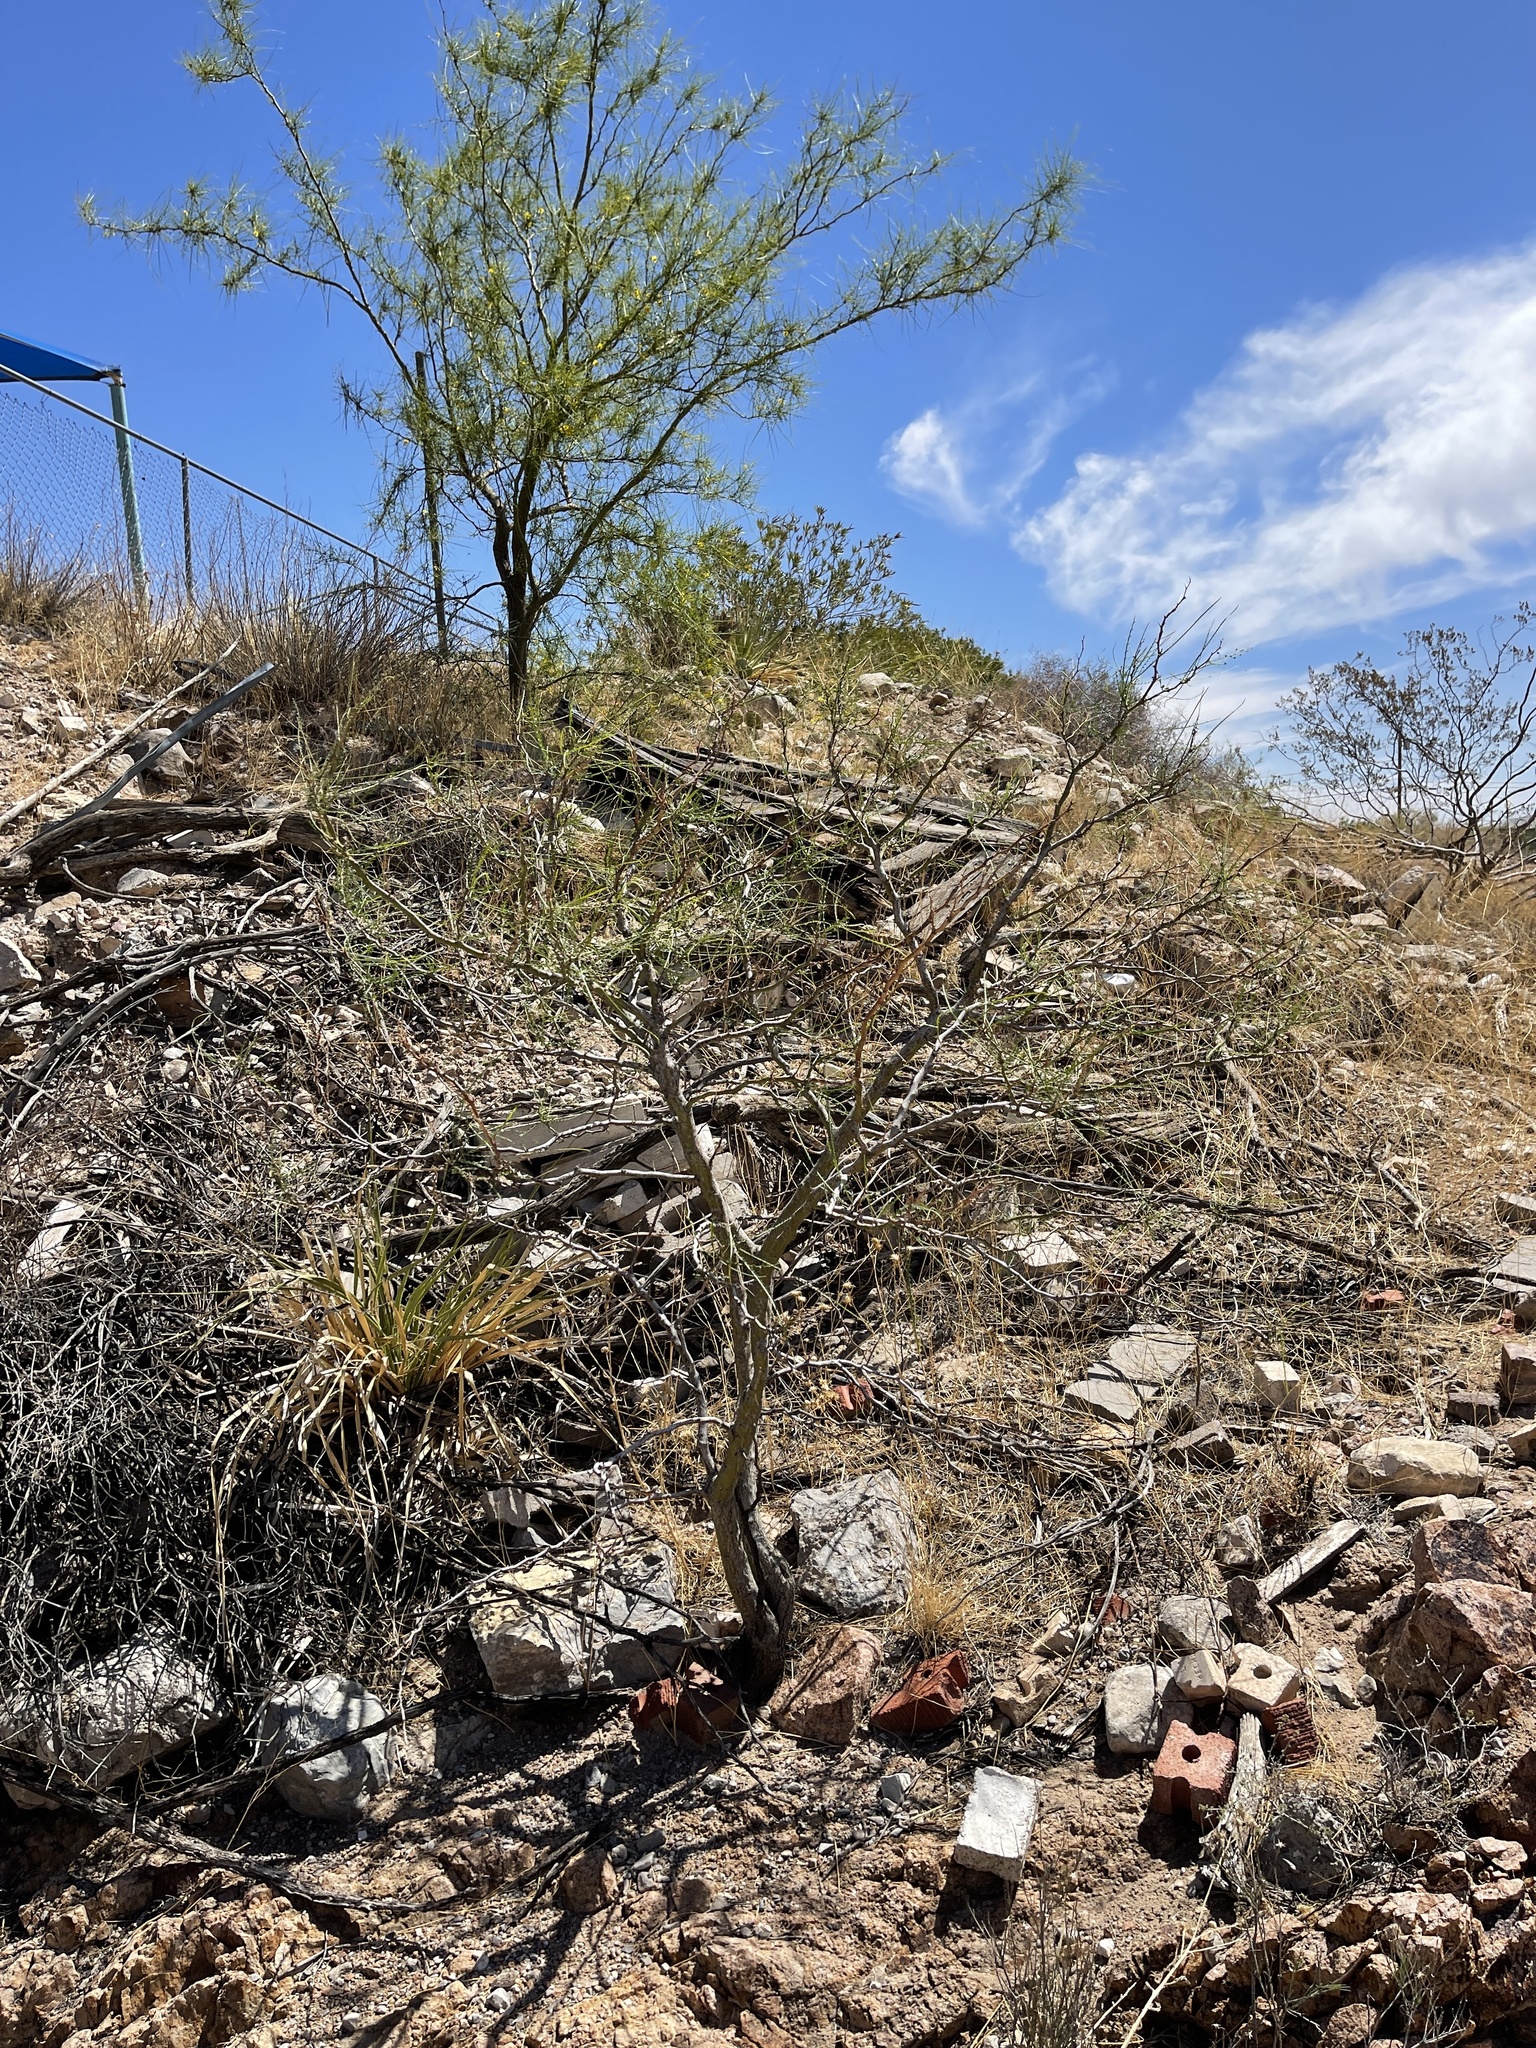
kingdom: Plantae
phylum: Tracheophyta
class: Magnoliopsida
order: Fabales
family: Fabaceae
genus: Parkinsonia
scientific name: Parkinsonia aculeata
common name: Jerusalem thorn
